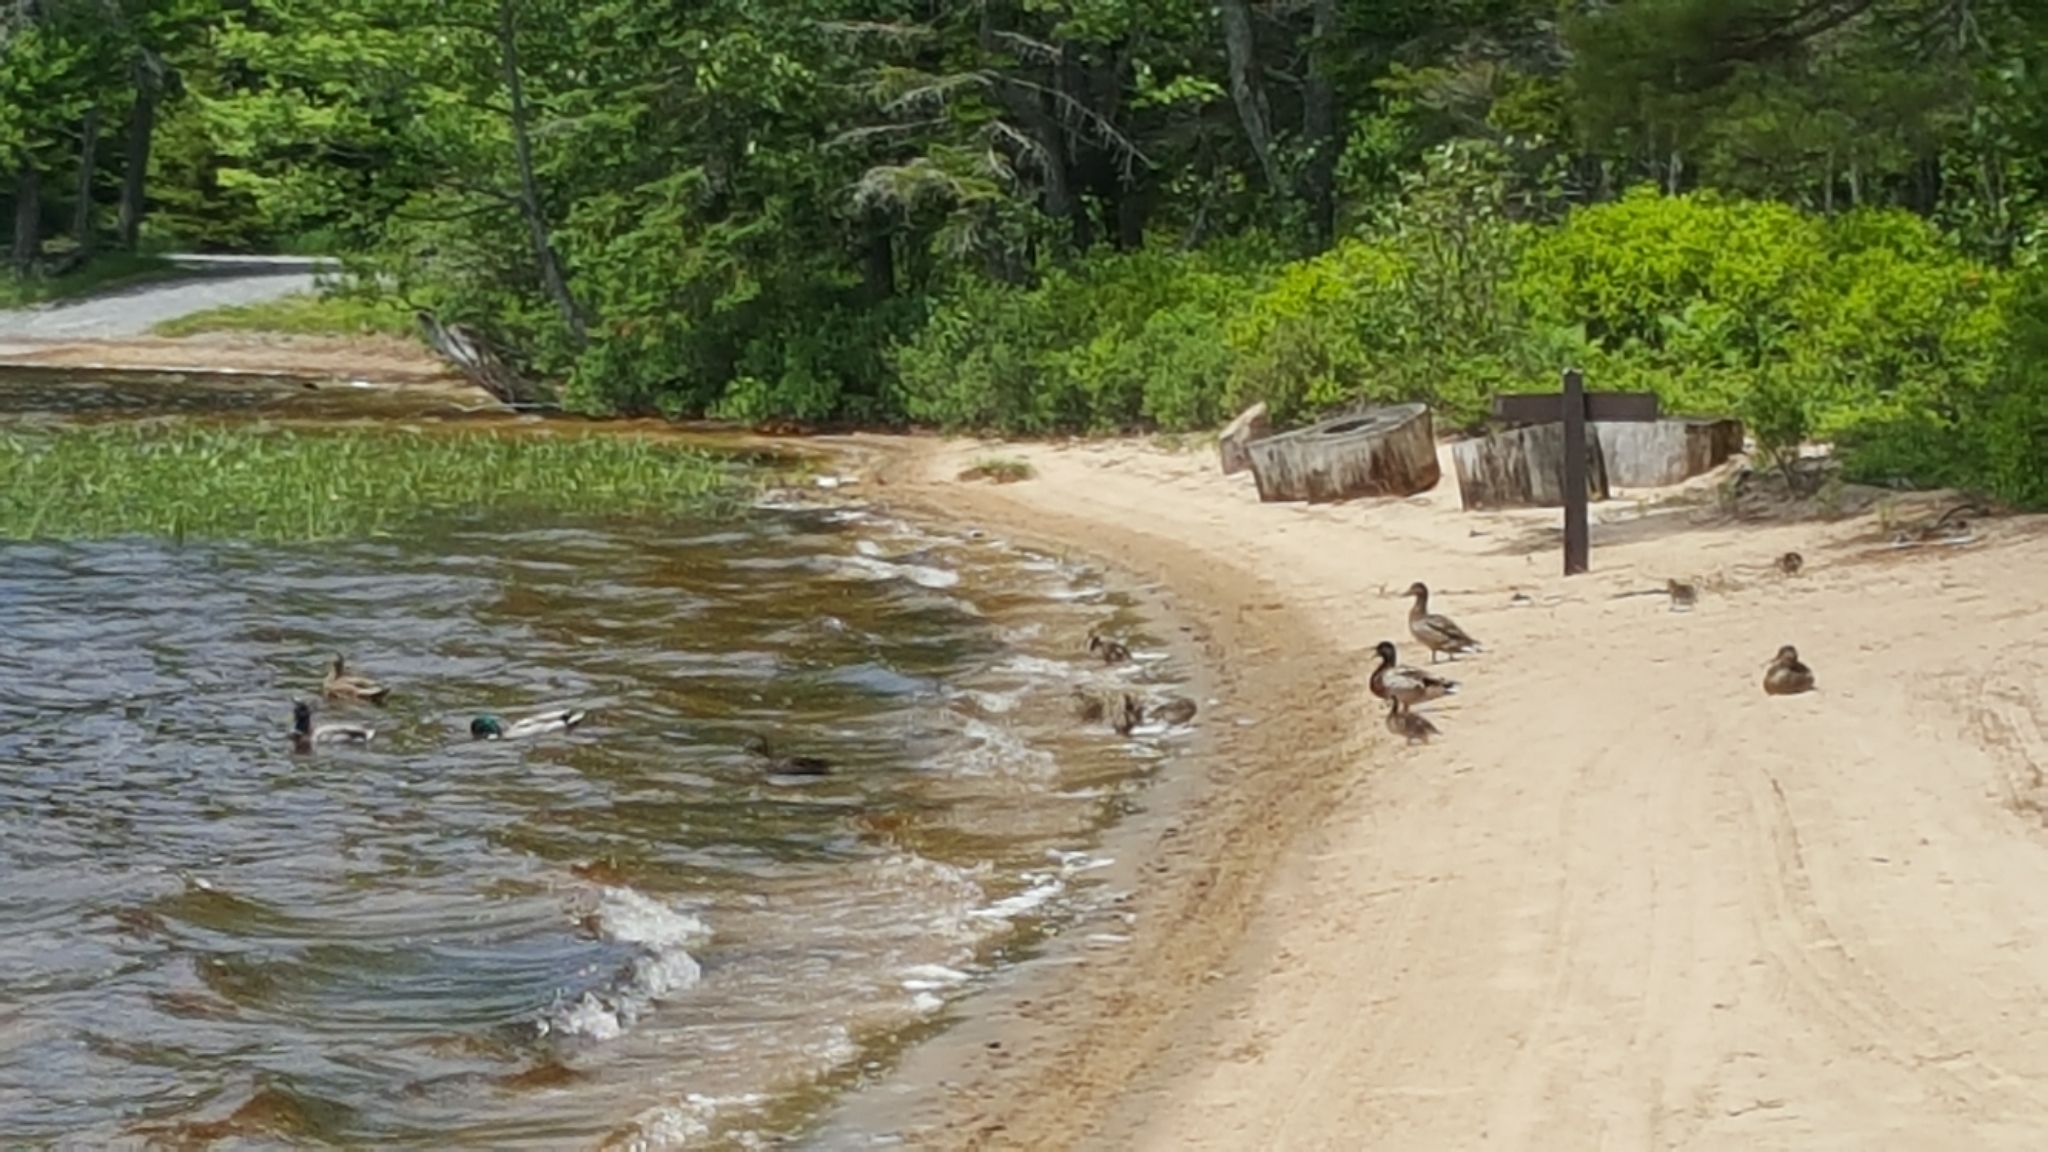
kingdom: Animalia
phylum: Chordata
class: Aves
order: Anseriformes
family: Anatidae
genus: Anas
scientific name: Anas platyrhynchos
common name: Mallard
